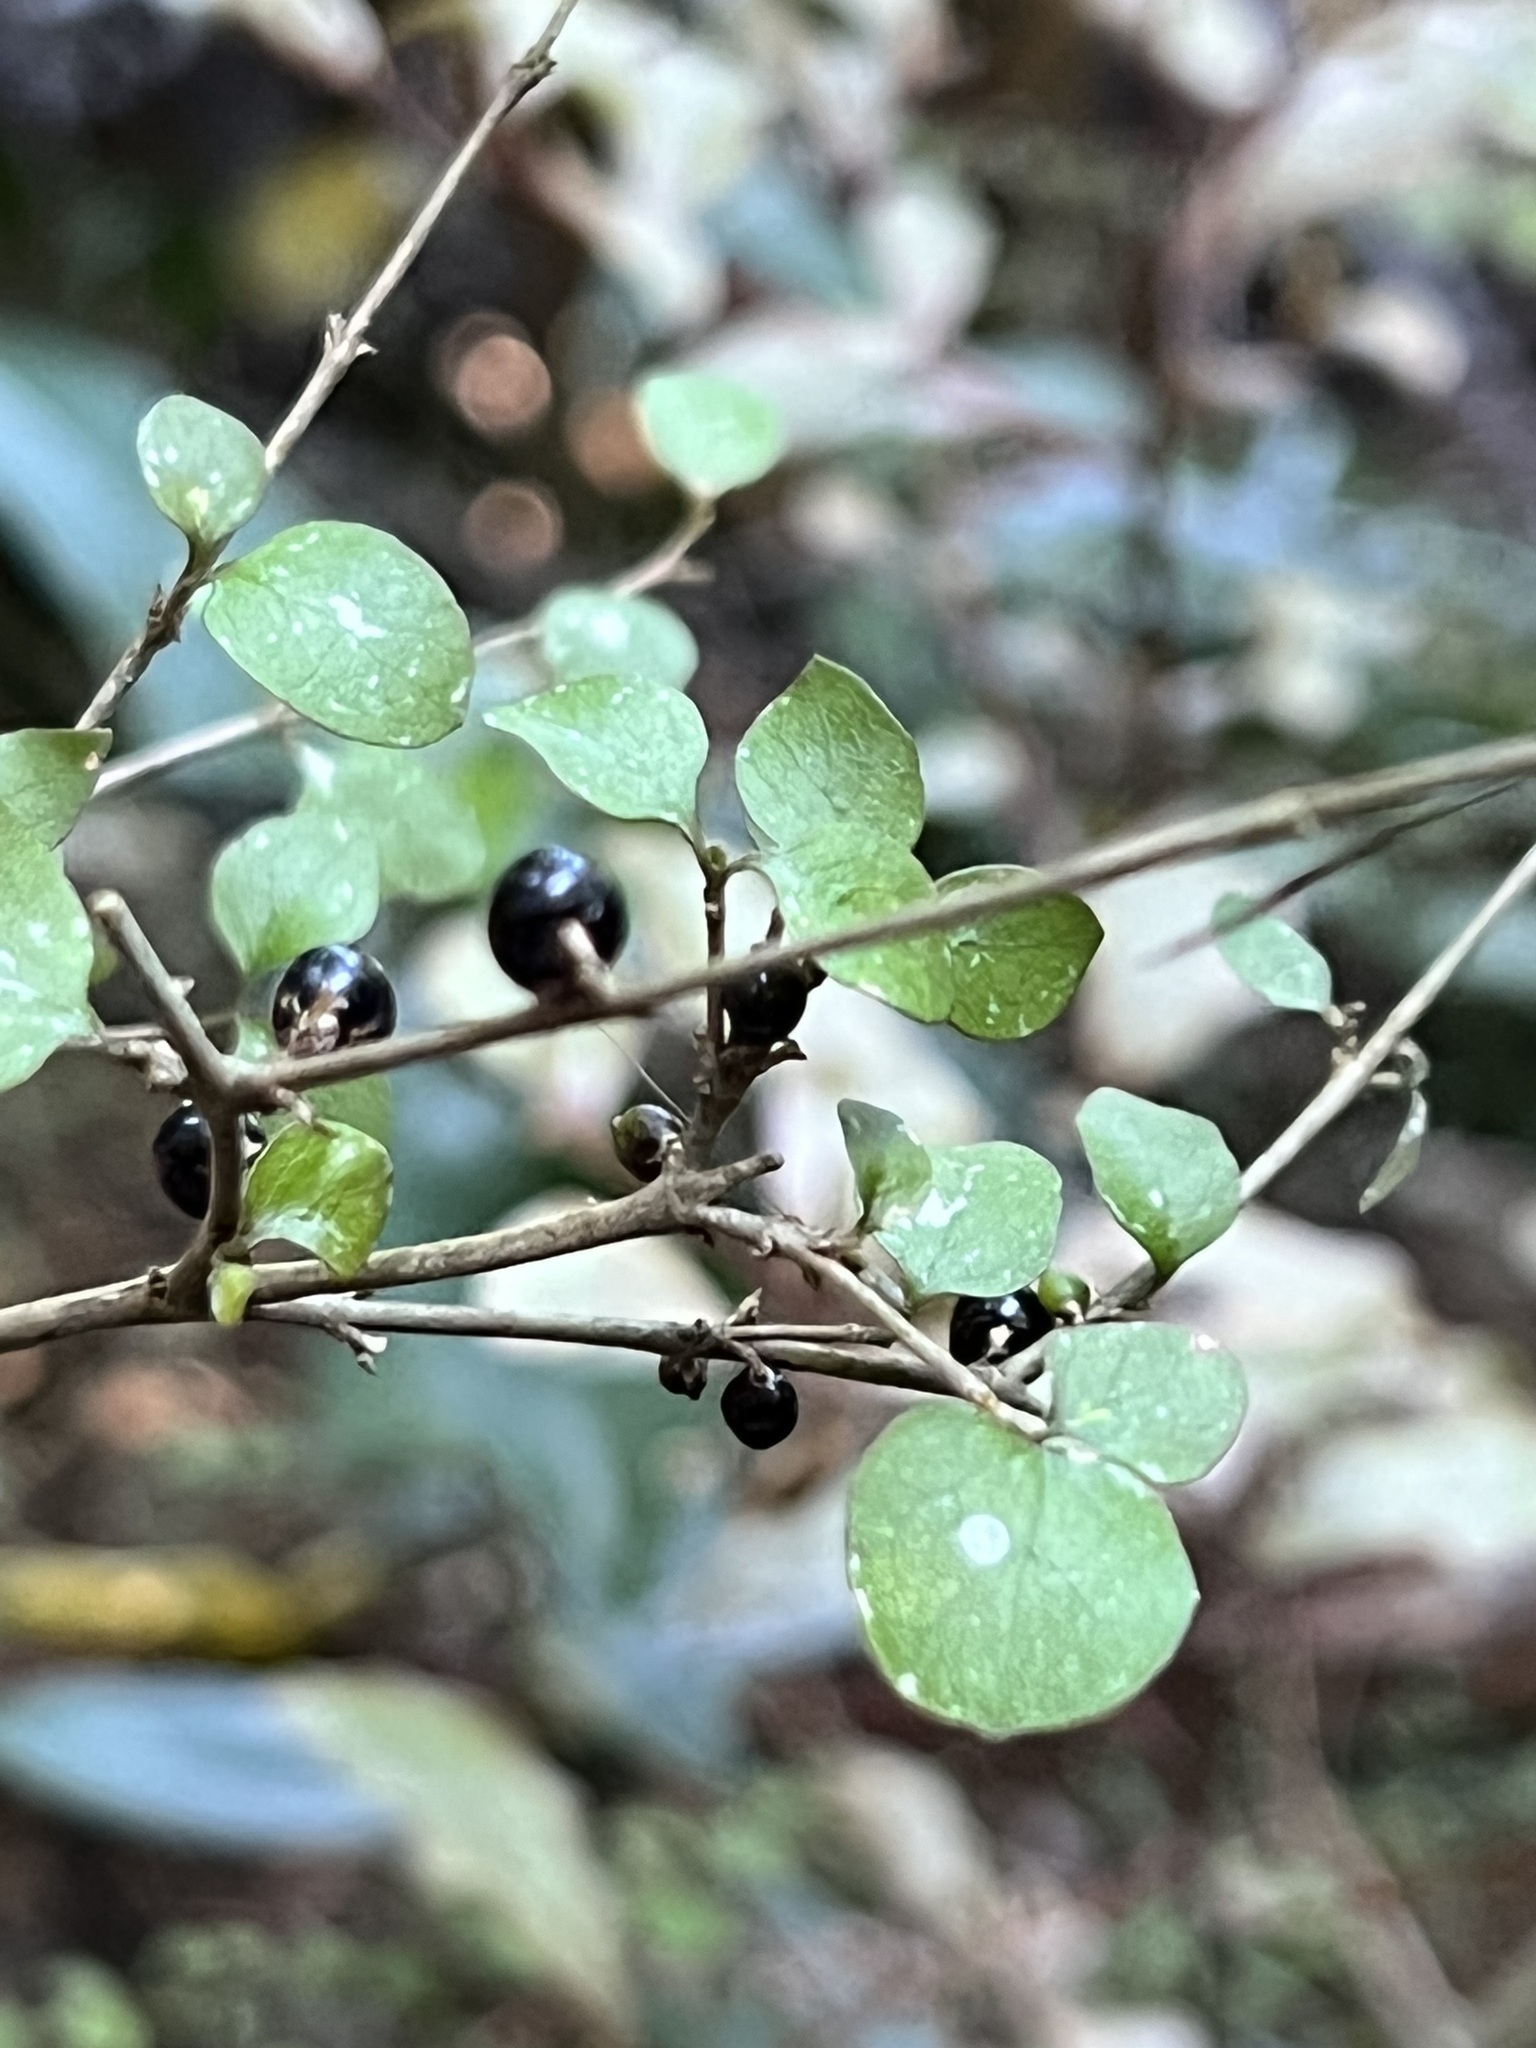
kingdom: Plantae
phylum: Tracheophyta
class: Magnoliopsida
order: Gentianales
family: Rubiaceae
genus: Coprosma
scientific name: Coprosma rhamnoides
